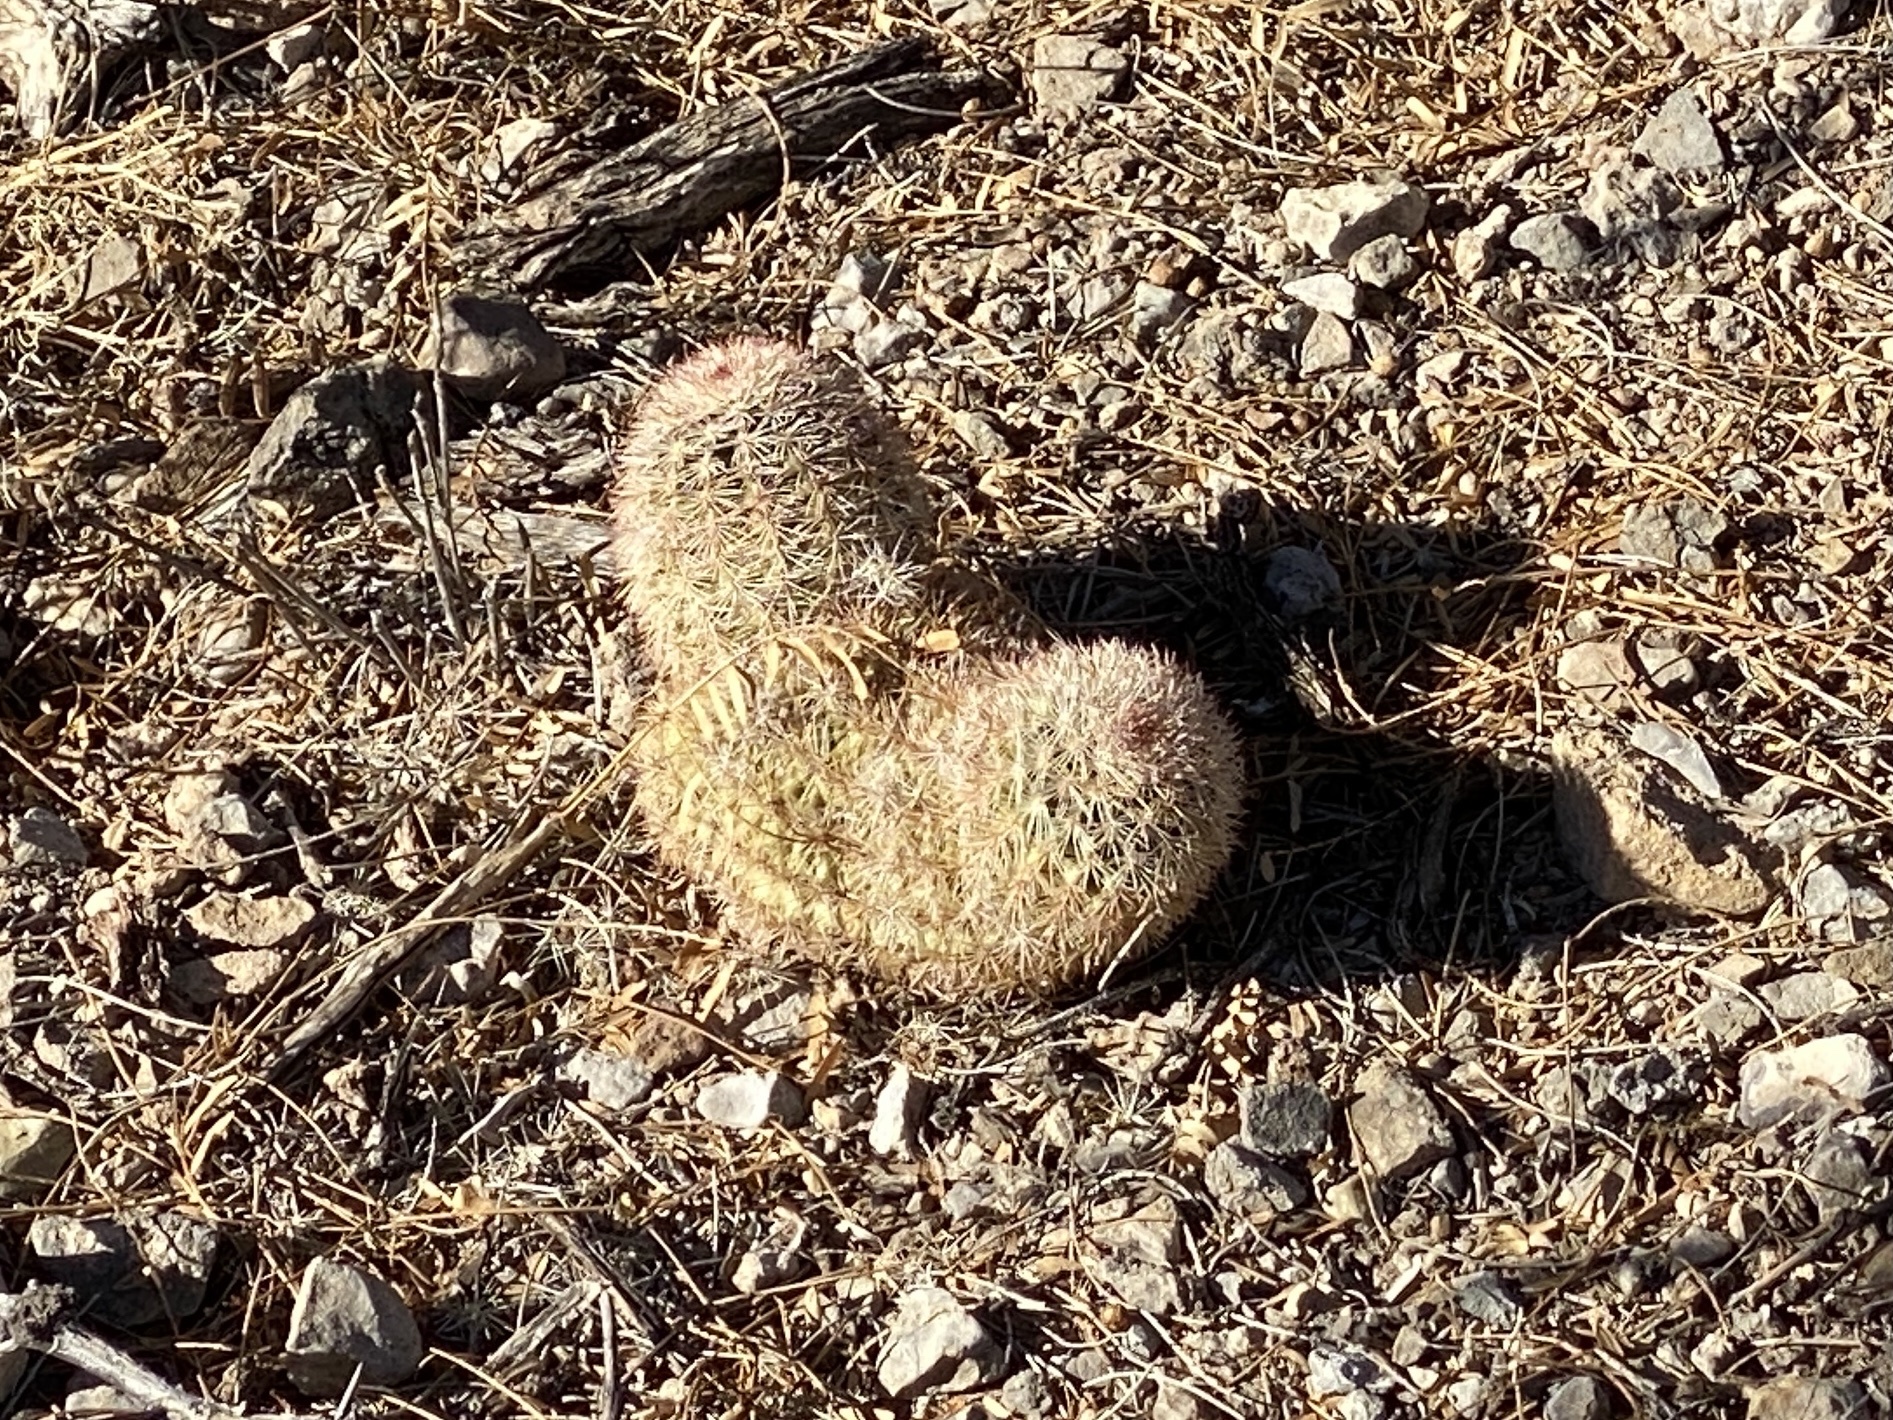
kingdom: Plantae
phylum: Tracheophyta
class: Magnoliopsida
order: Caryophyllales
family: Cactaceae
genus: Echinocereus
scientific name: Echinocereus dasyacanthus
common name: Spiny hedgehog cactus
